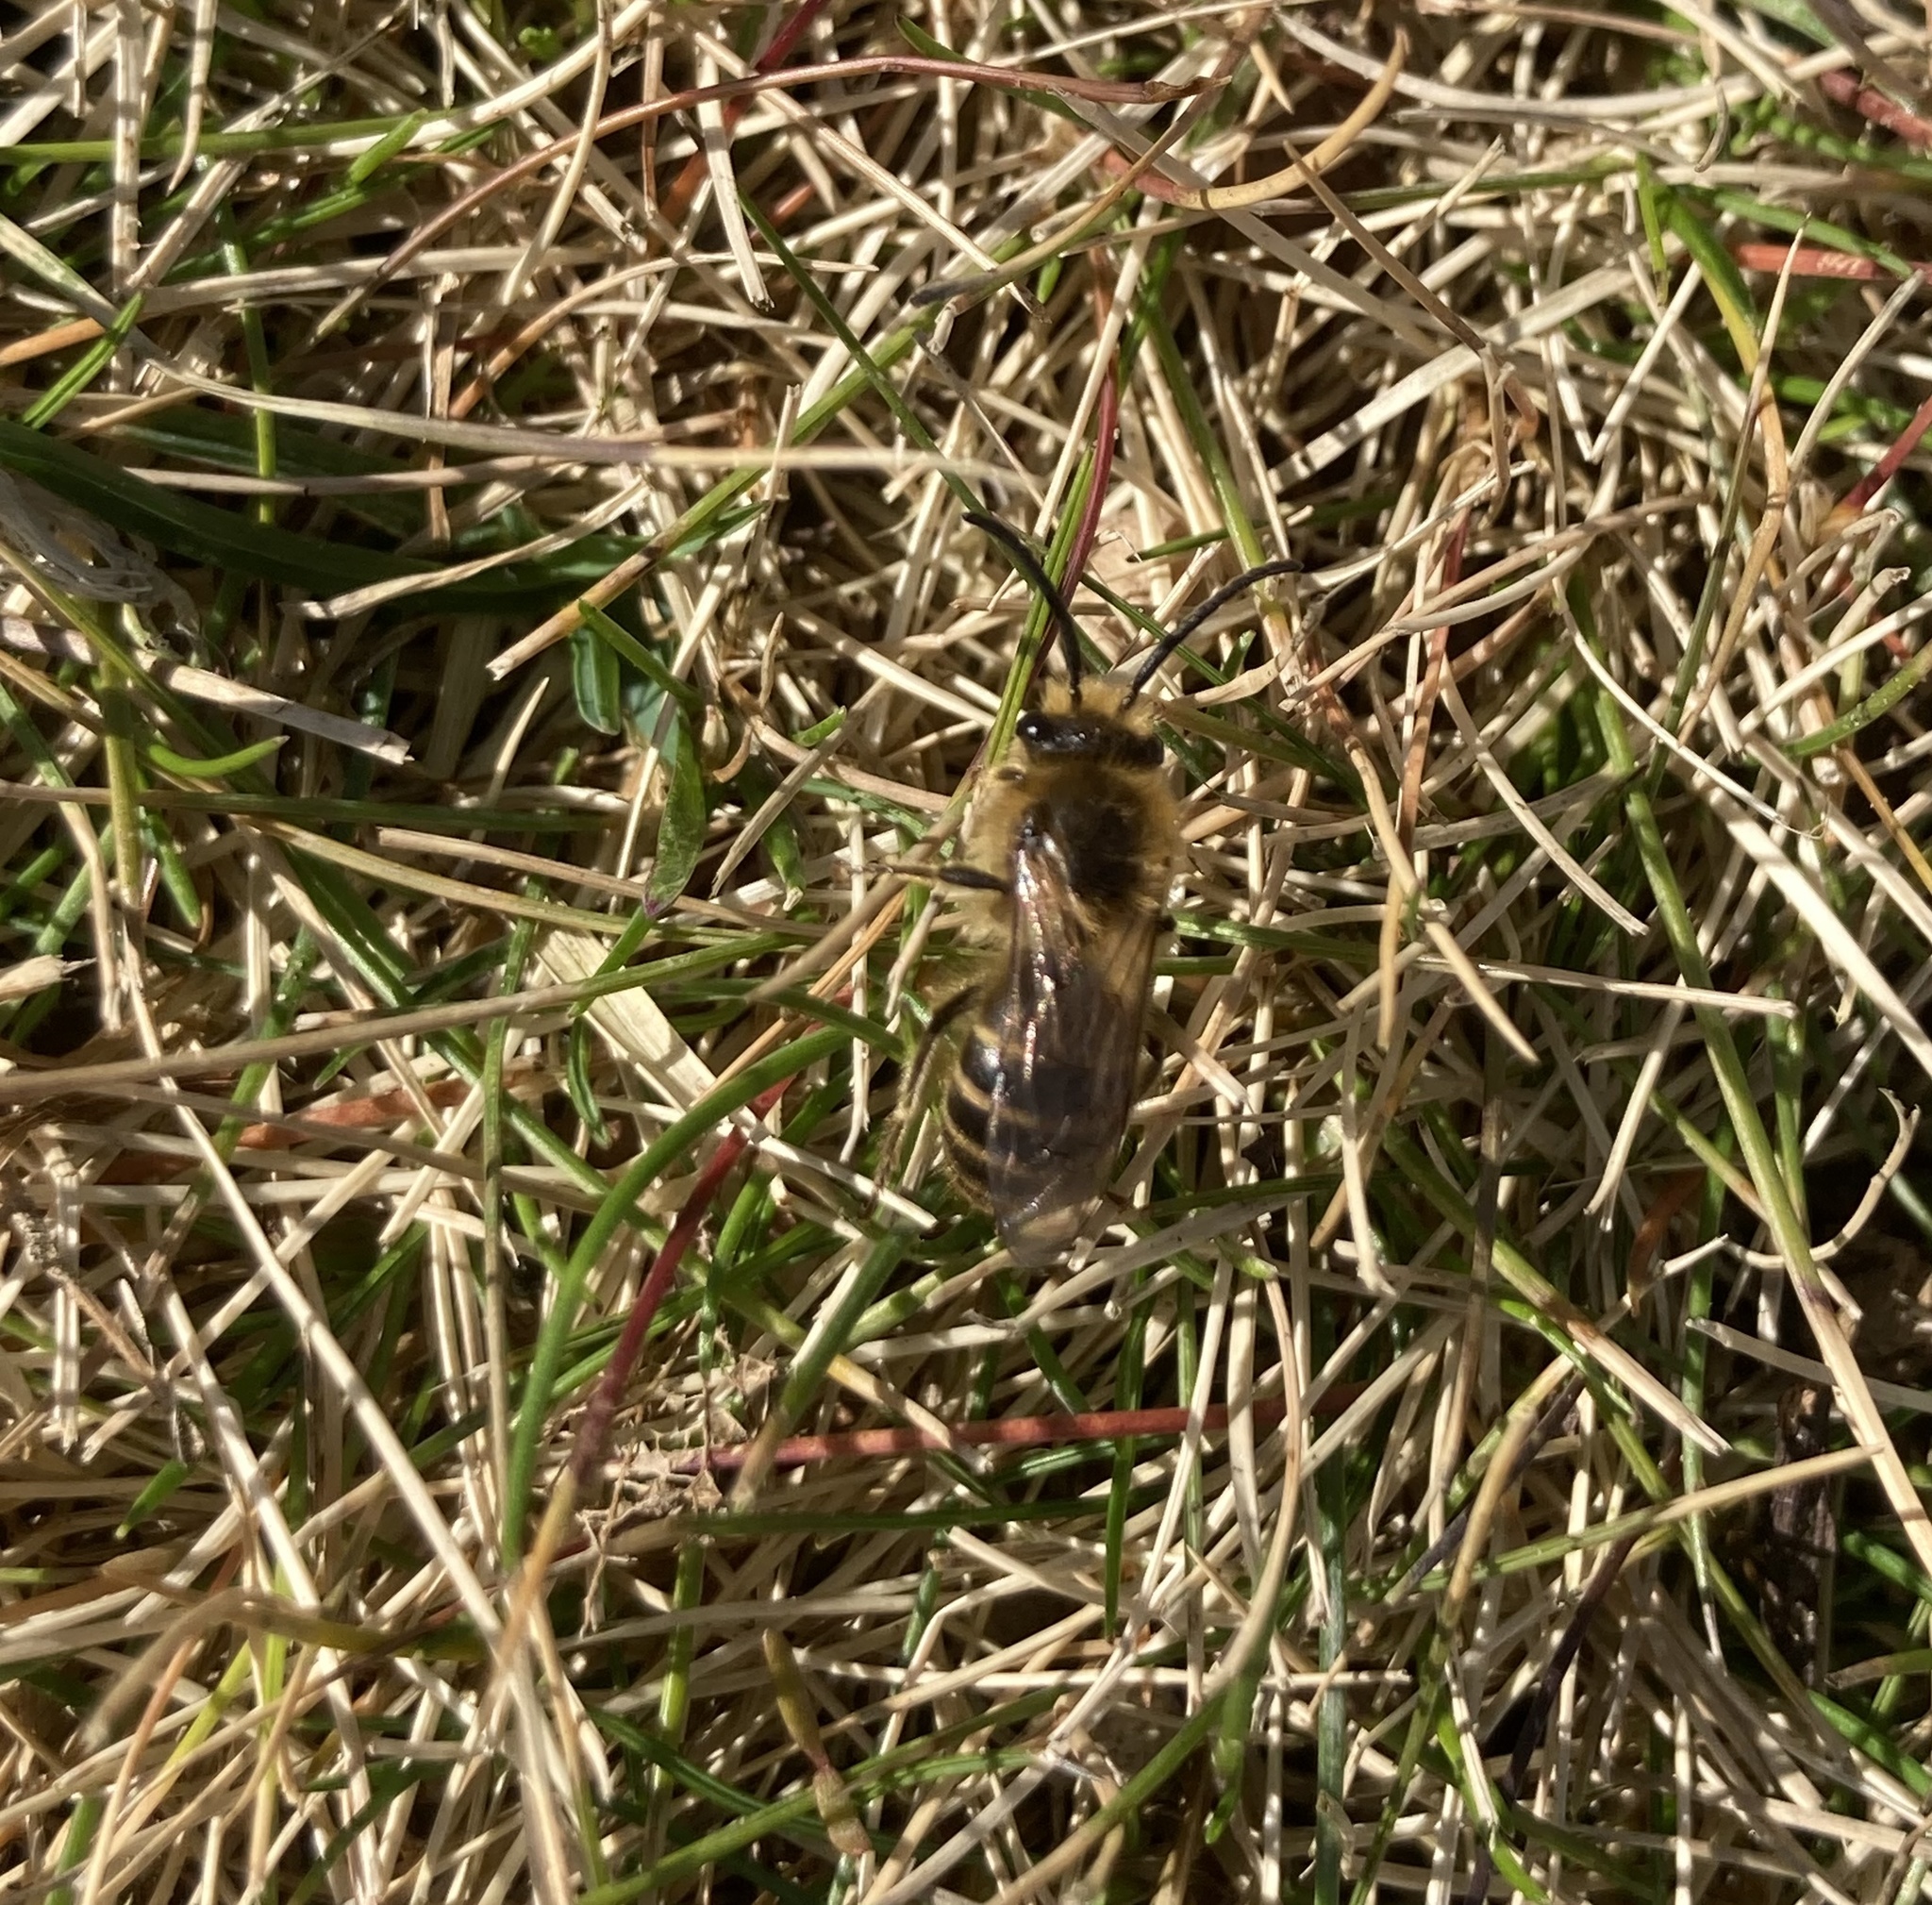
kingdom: Animalia
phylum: Arthropoda
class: Insecta
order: Hymenoptera
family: Colletidae
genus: Colletes
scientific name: Colletes inaequalis
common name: Unequal cellophane bee
